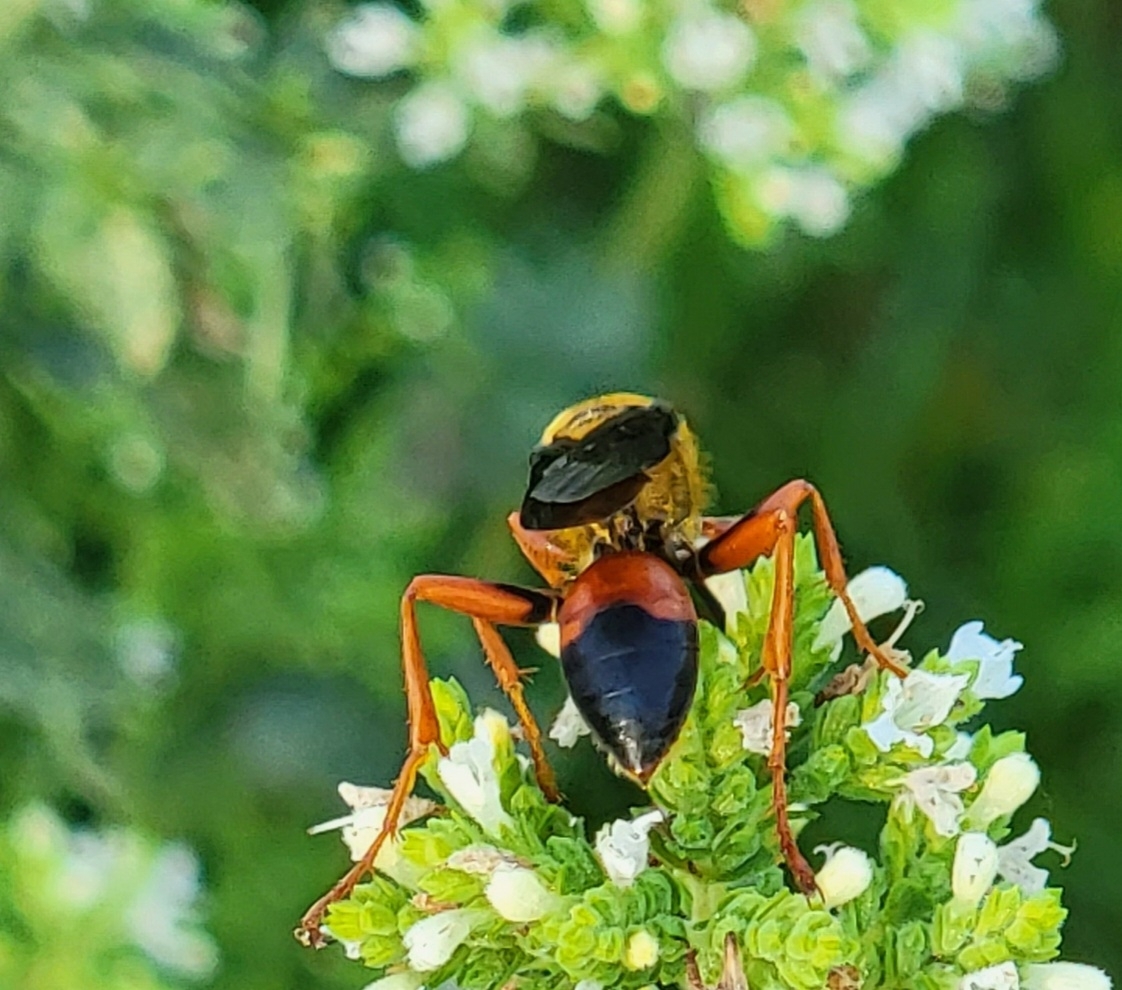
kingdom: Animalia
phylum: Arthropoda
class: Insecta
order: Hymenoptera
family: Sphecidae
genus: Sphex
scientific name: Sphex ichneumoneus
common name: Great golden digger wasp
